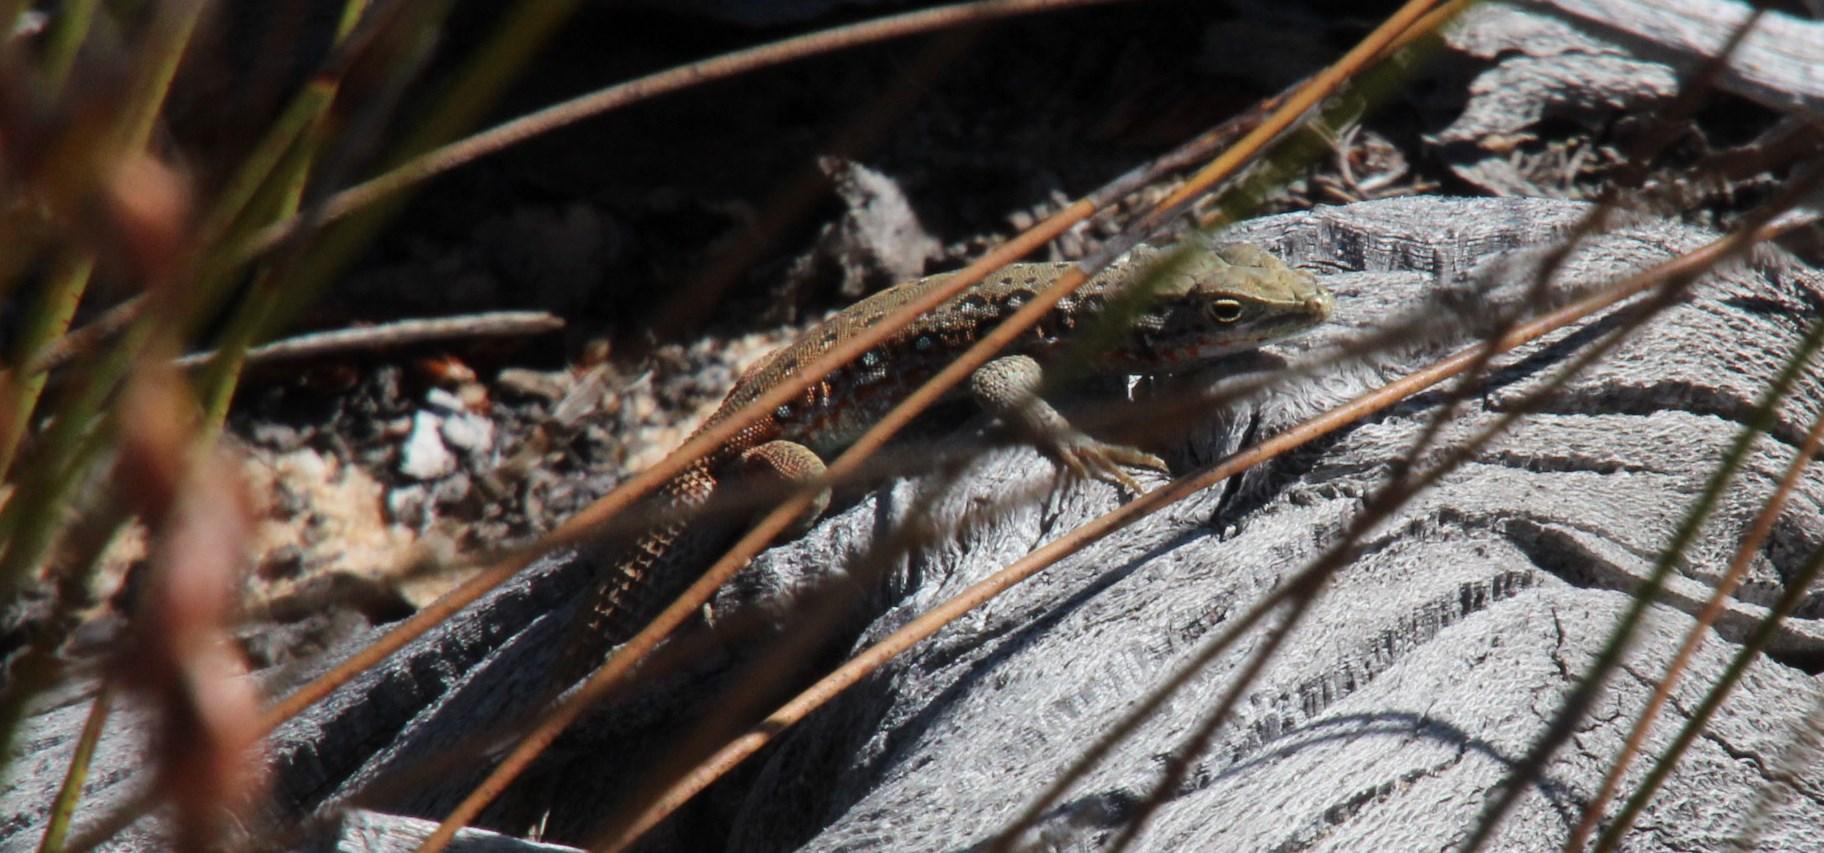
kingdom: Animalia
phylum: Chordata
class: Squamata
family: Lacertidae
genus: Pedioplanis
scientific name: Pedioplanis lineoocellata
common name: Spotted sand lizard
